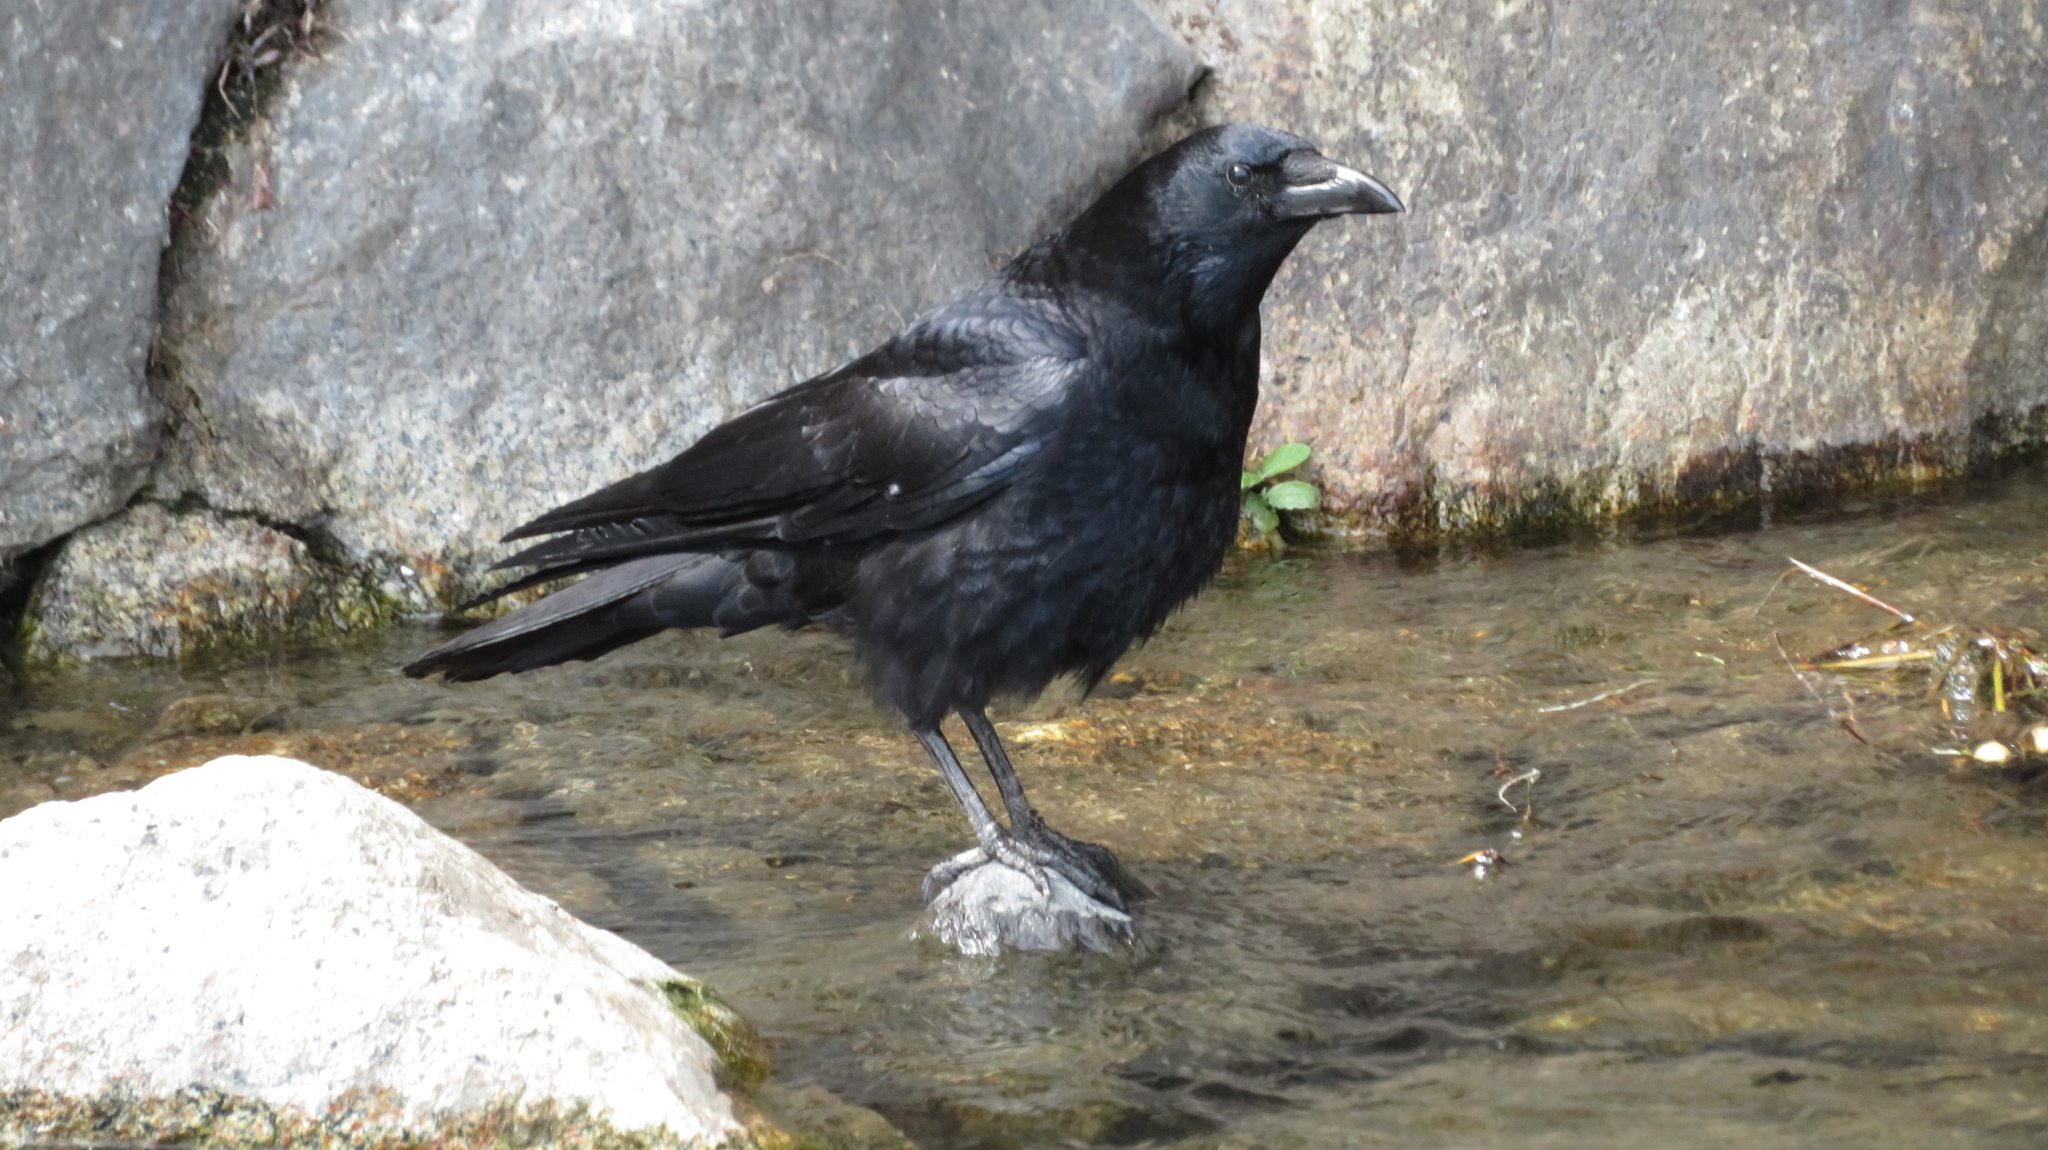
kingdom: Animalia
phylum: Chordata
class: Aves
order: Passeriformes
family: Corvidae
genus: Corvus
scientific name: Corvus corone
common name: Carrion crow
